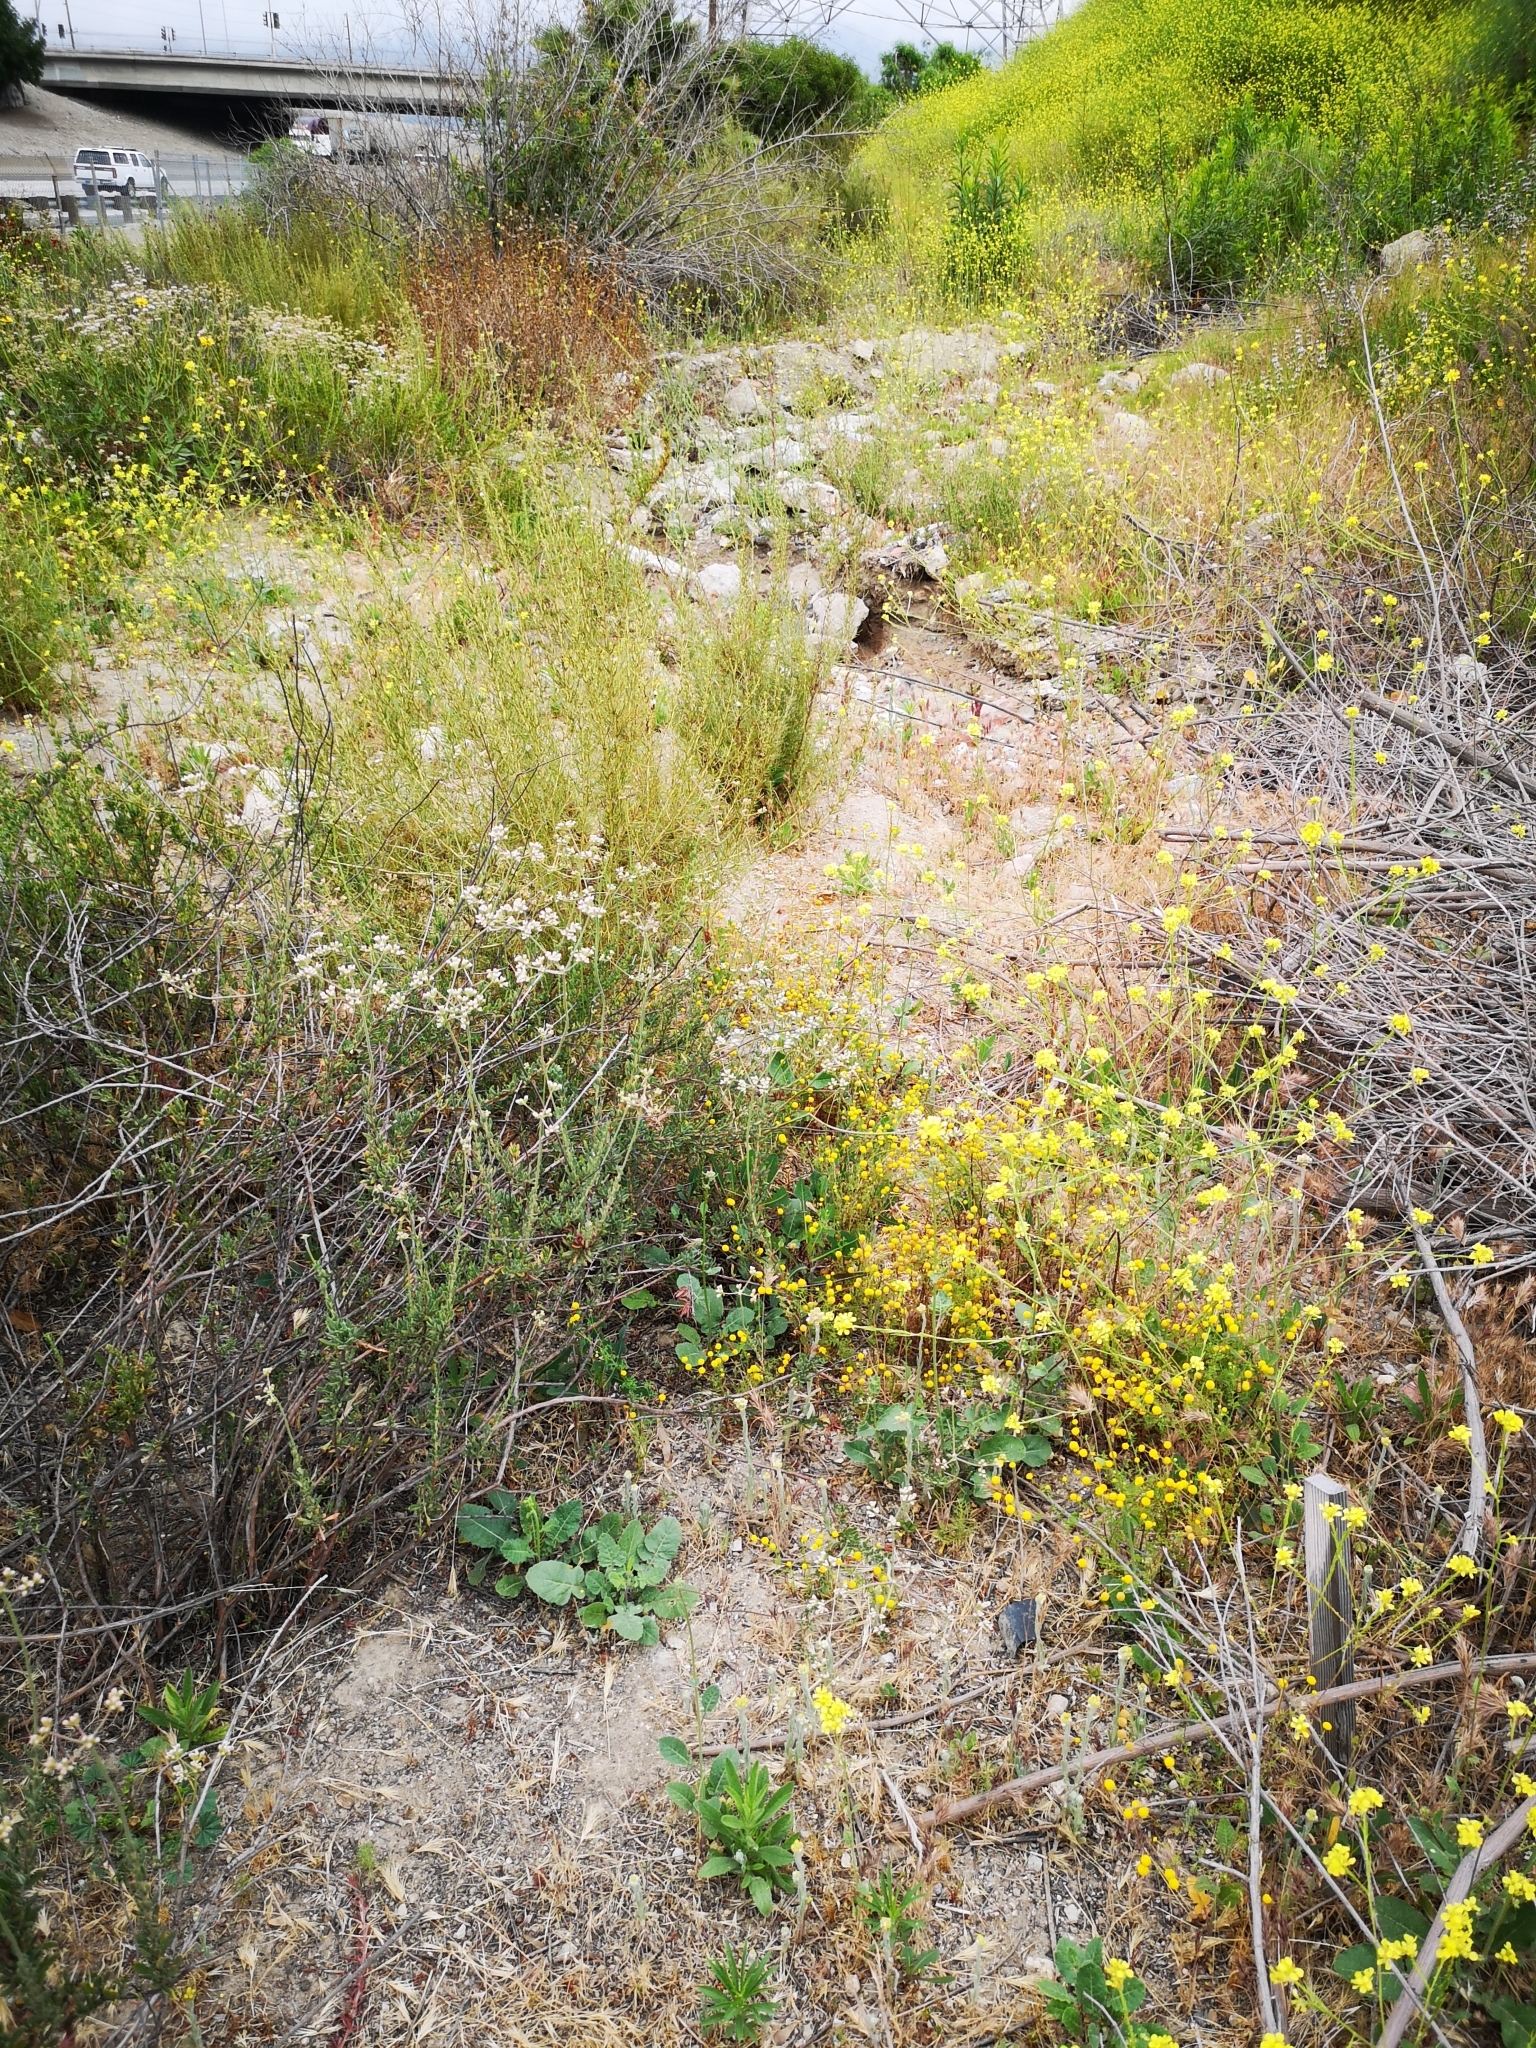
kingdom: Plantae
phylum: Tracheophyta
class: Magnoliopsida
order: Asterales
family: Asteraceae
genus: Oncosiphon
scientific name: Oncosiphon pilulifer
